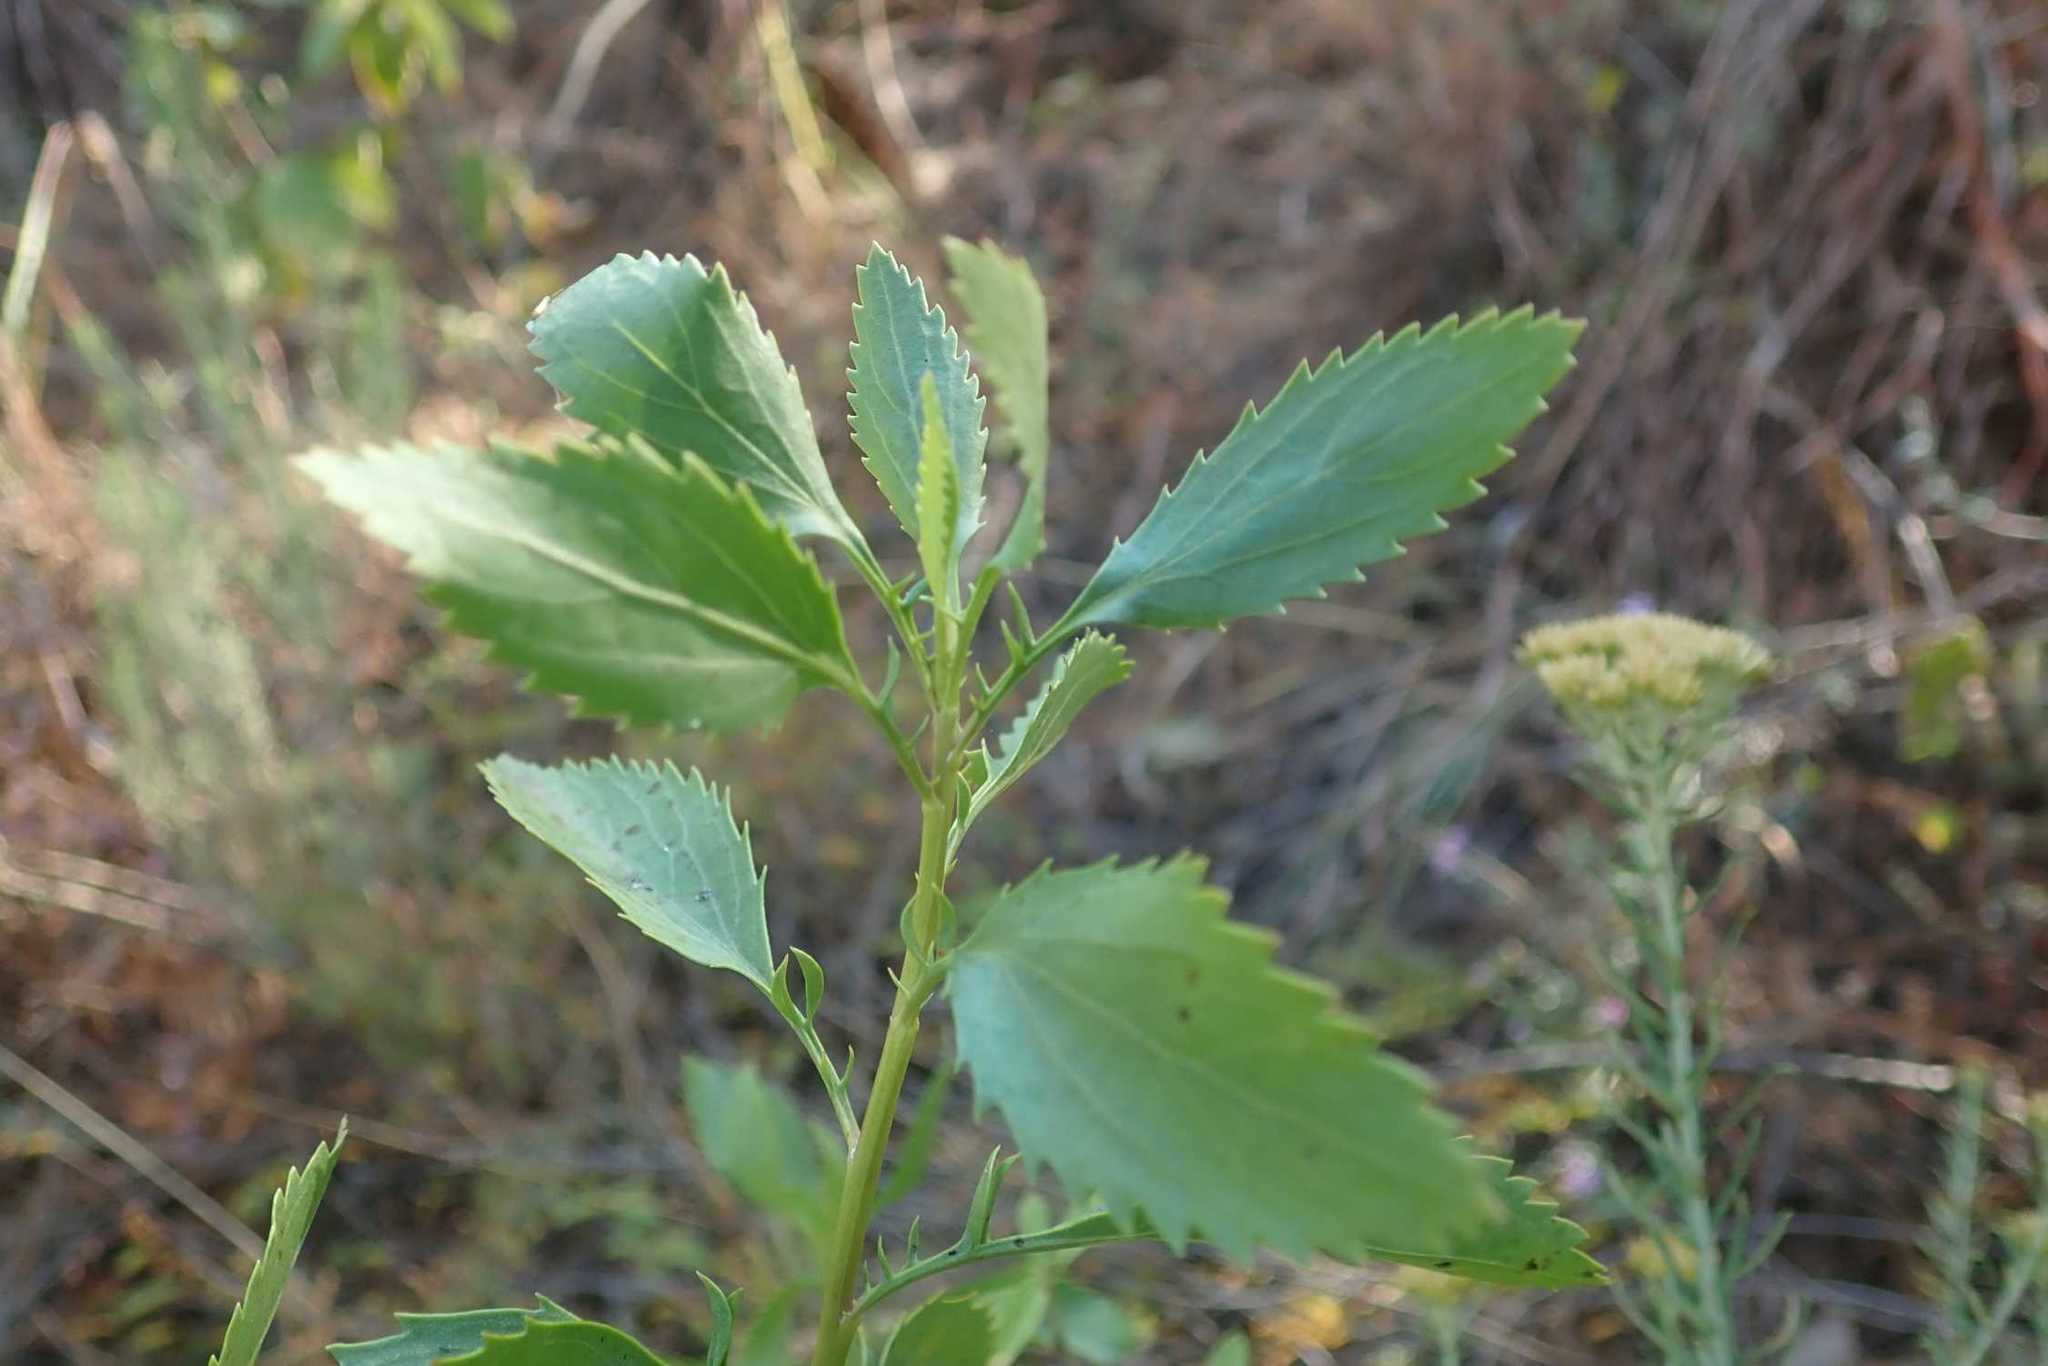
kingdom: Plantae
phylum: Tracheophyta
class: Magnoliopsida
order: Asterales
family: Asteraceae
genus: Senecio
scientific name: Senecio microglossus
